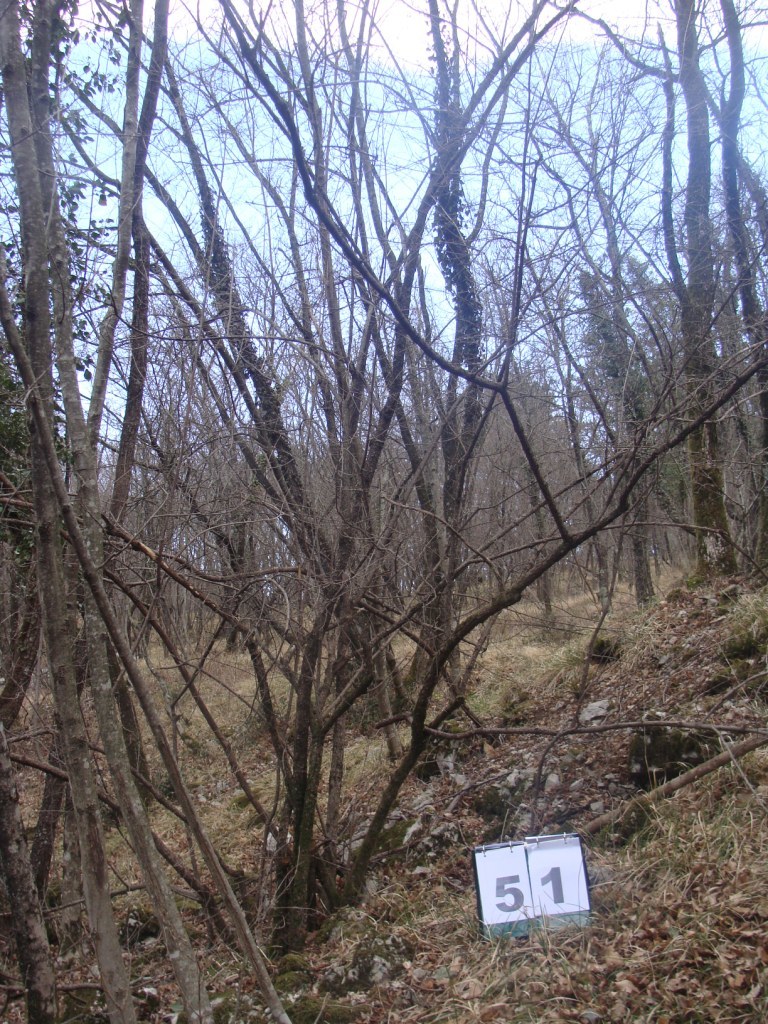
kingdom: Plantae
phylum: Tracheophyta
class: Magnoliopsida
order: Cornales
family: Cornaceae
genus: Cornus
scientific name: Cornus mas
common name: Cornelian-cherry
